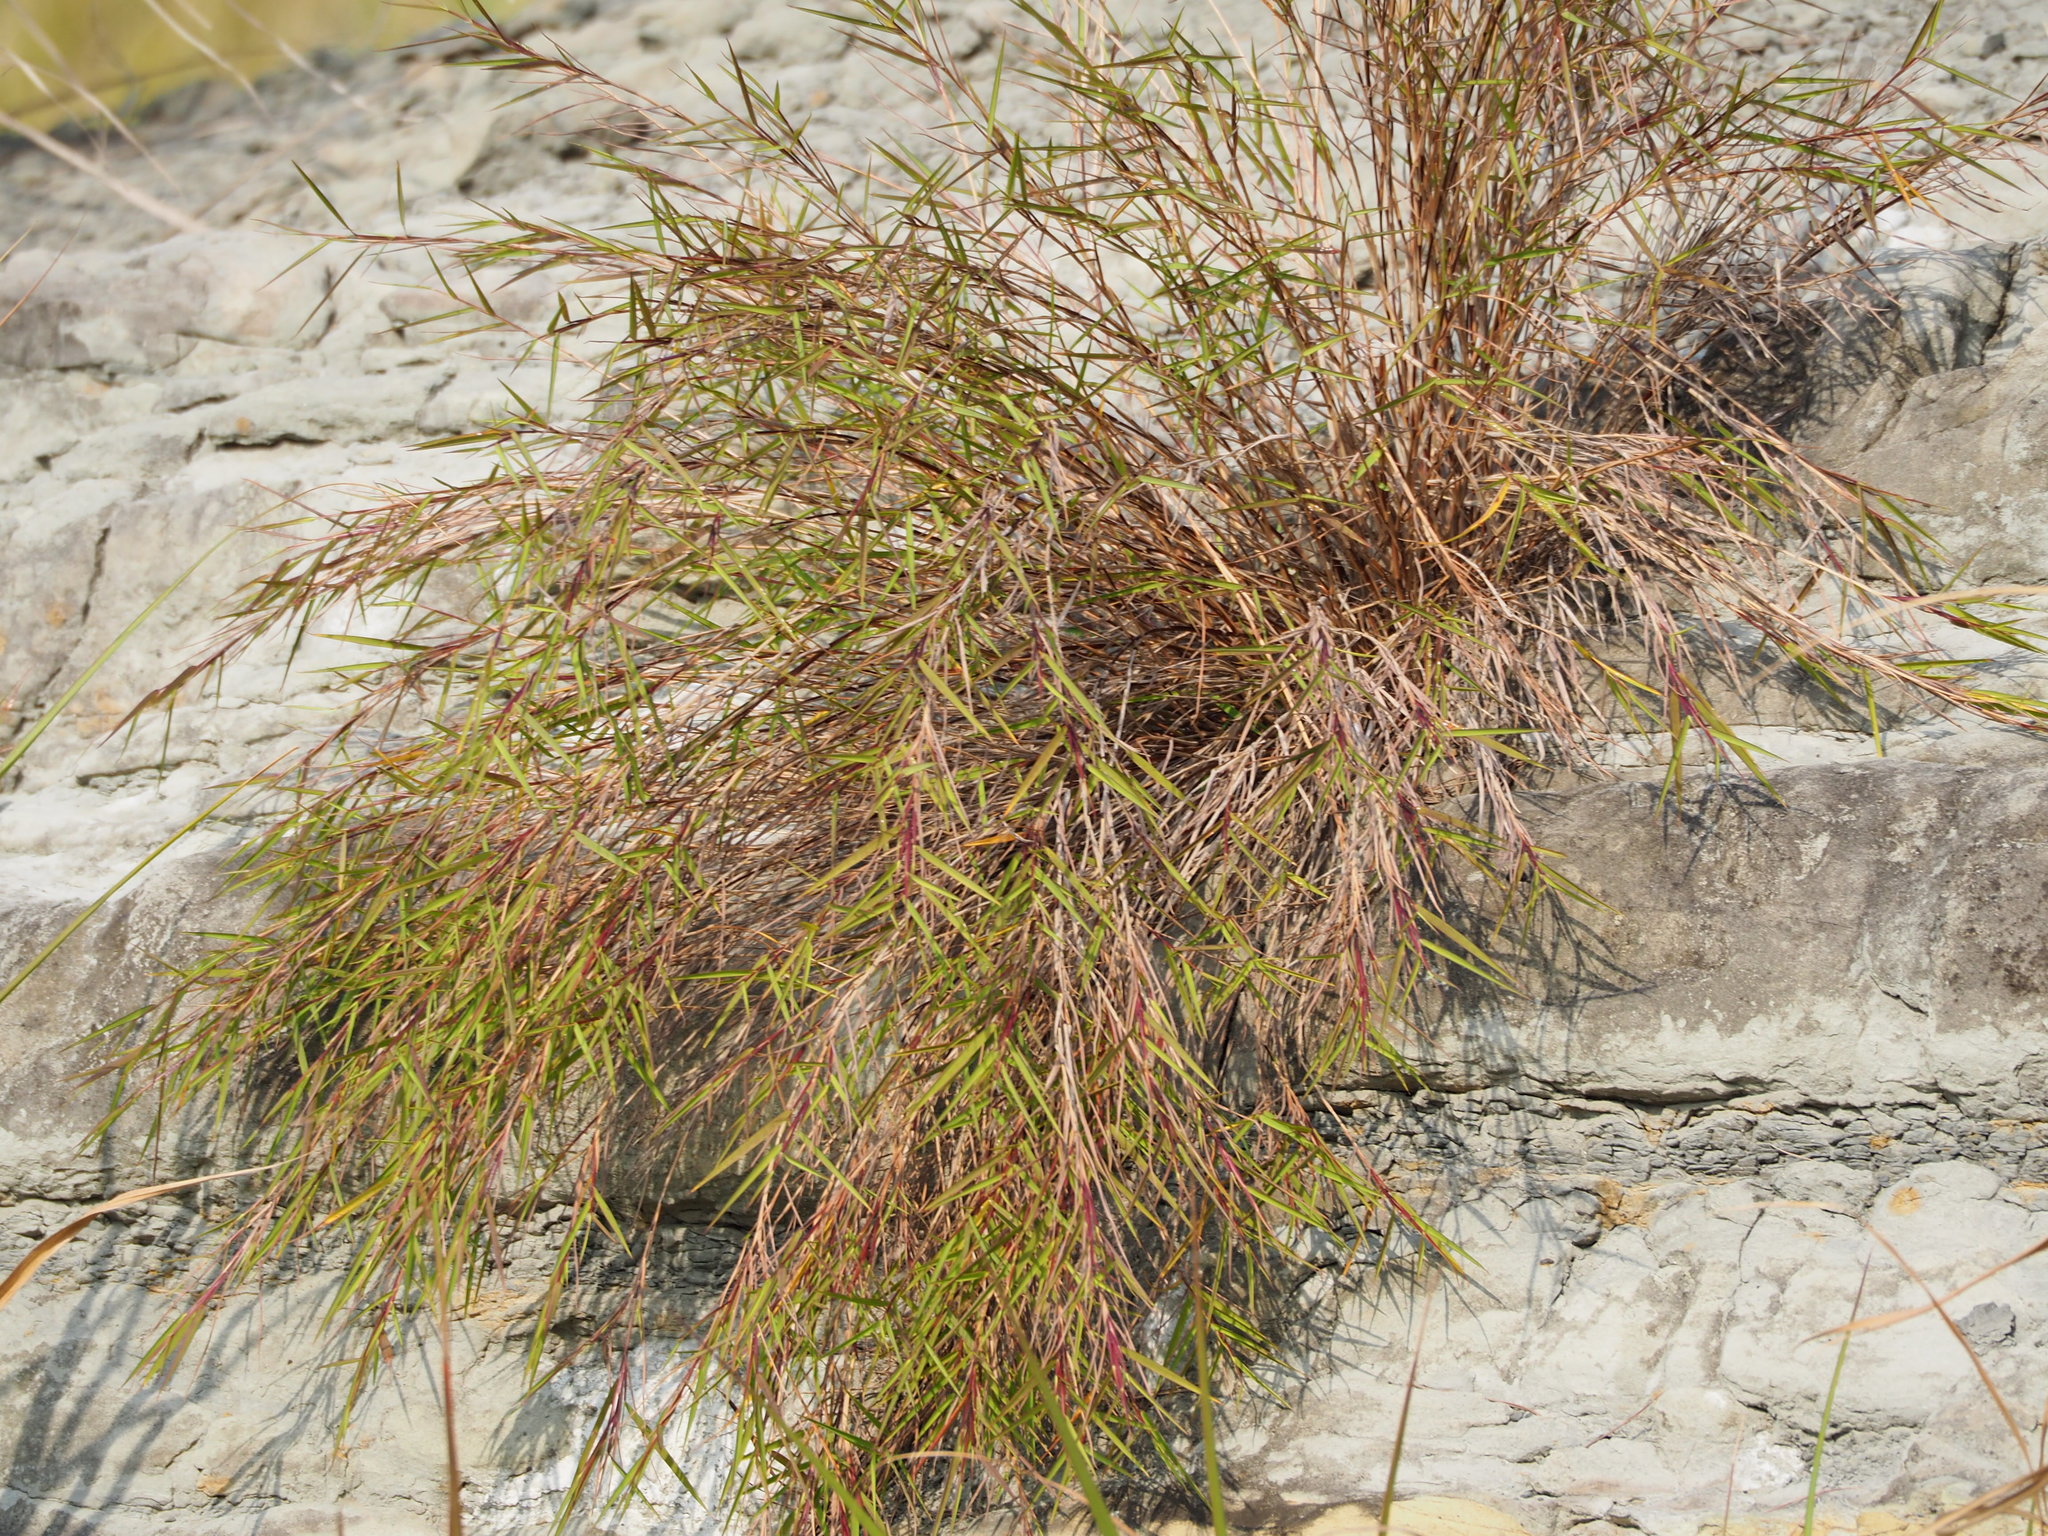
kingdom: Plantae
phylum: Tracheophyta
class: Liliopsida
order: Poales
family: Poaceae
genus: Arundo
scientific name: Arundo formosana
